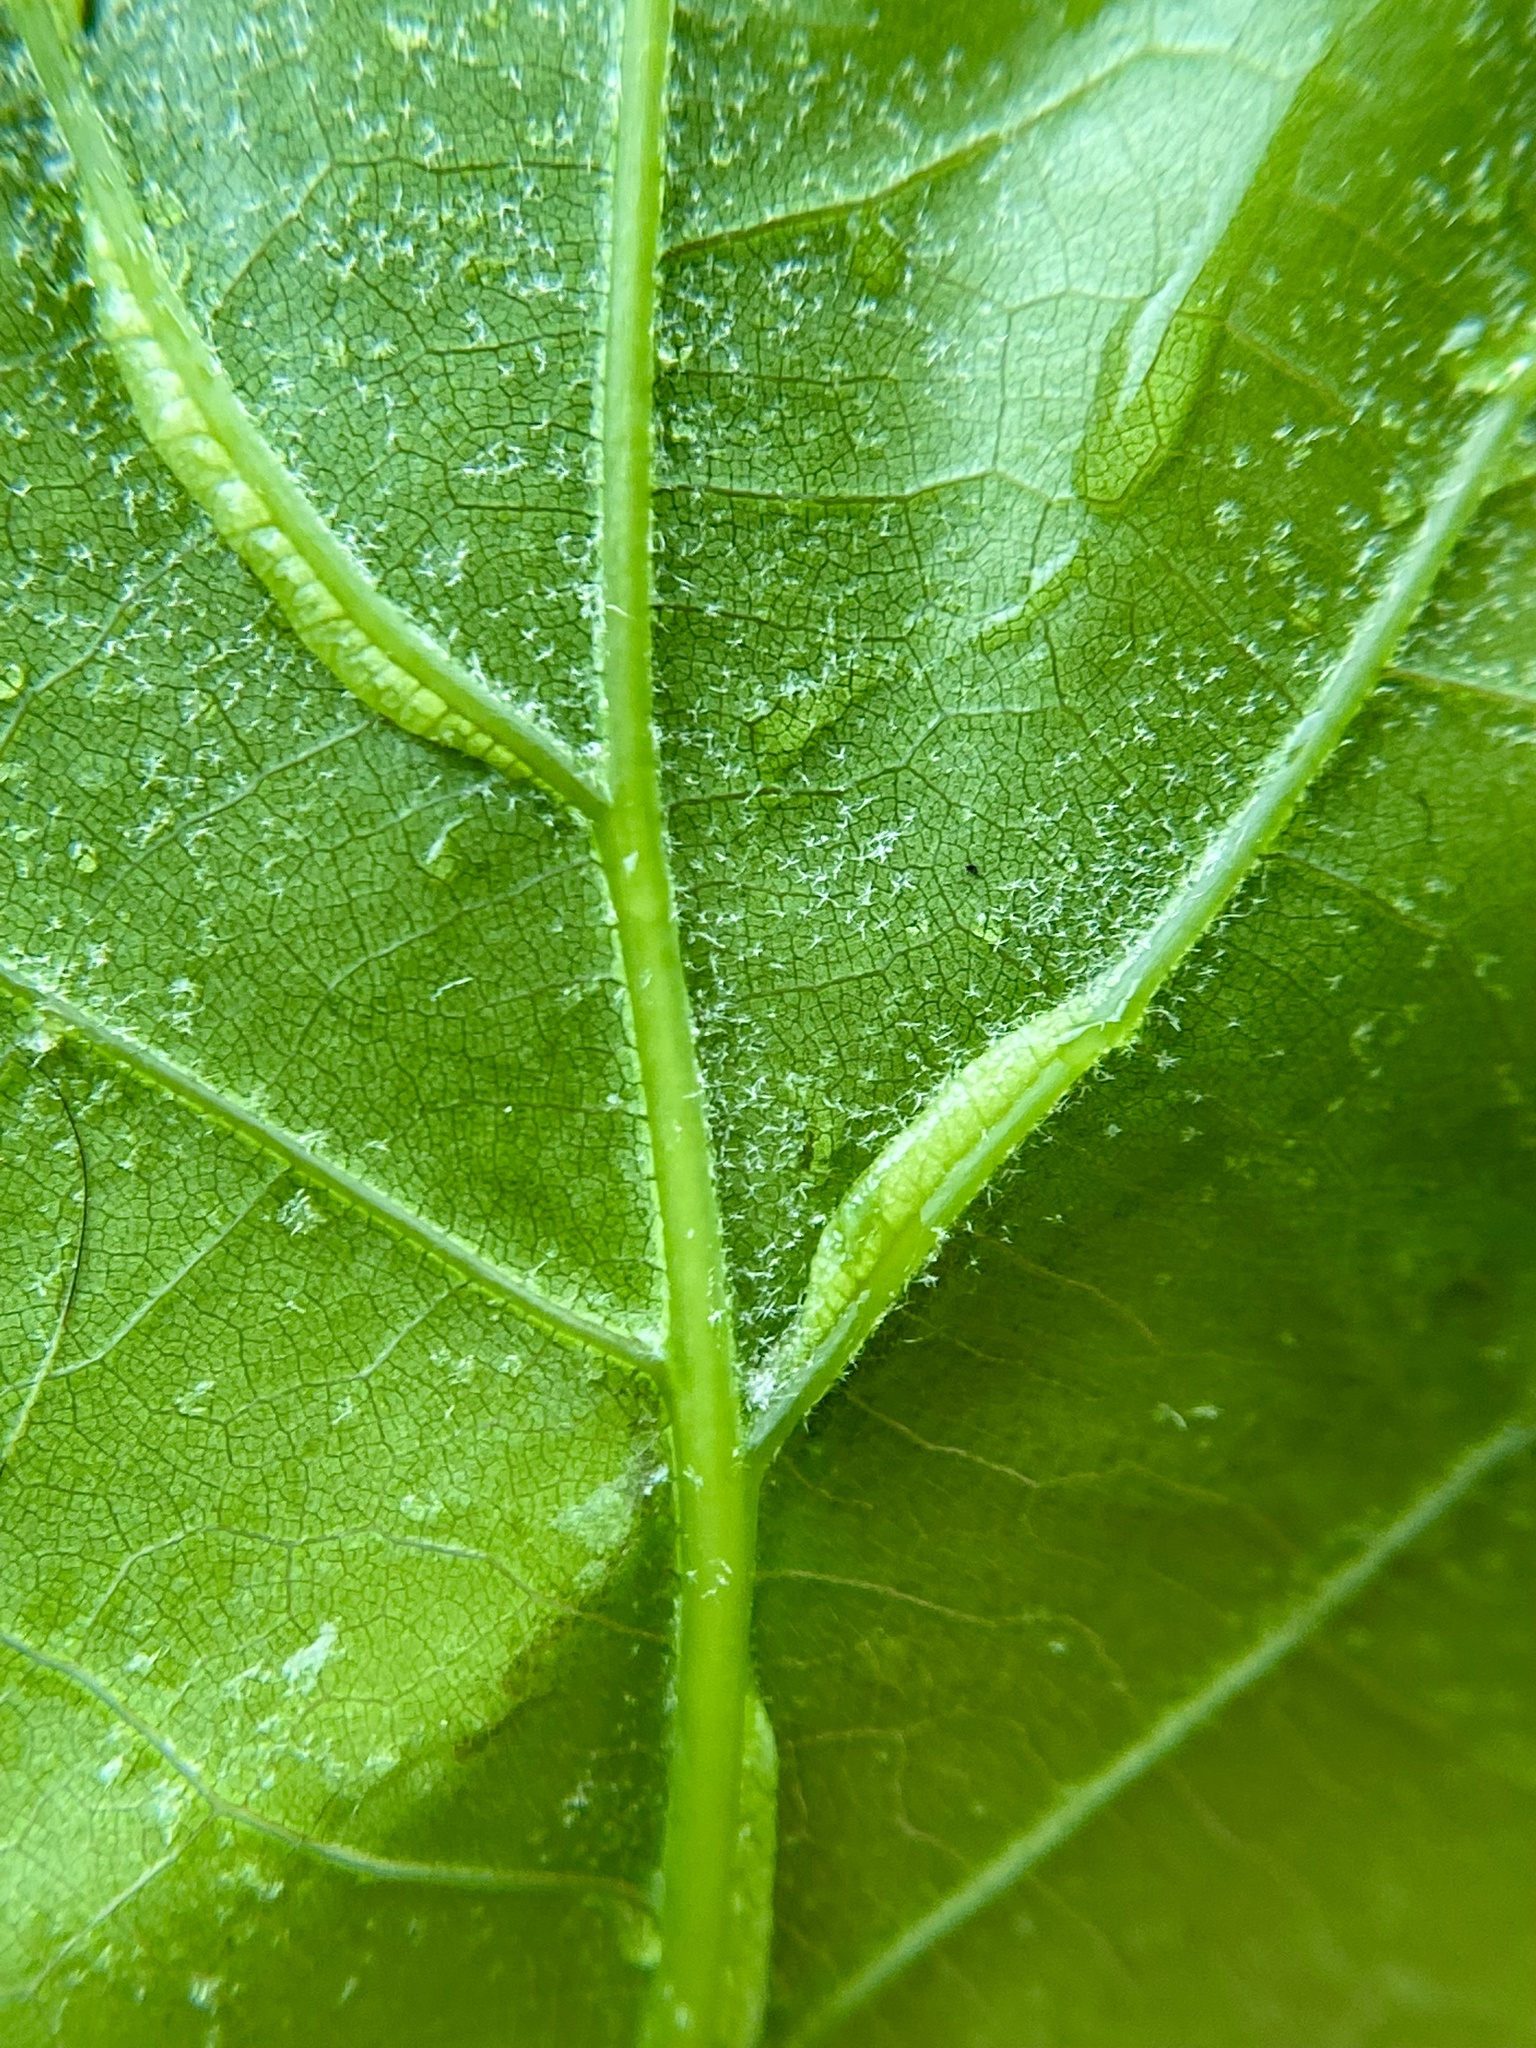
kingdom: Animalia
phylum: Arthropoda
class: Insecta
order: Diptera
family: Cecidomyiidae
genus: Macrodiplosis
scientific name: Macrodiplosis q-orucum
